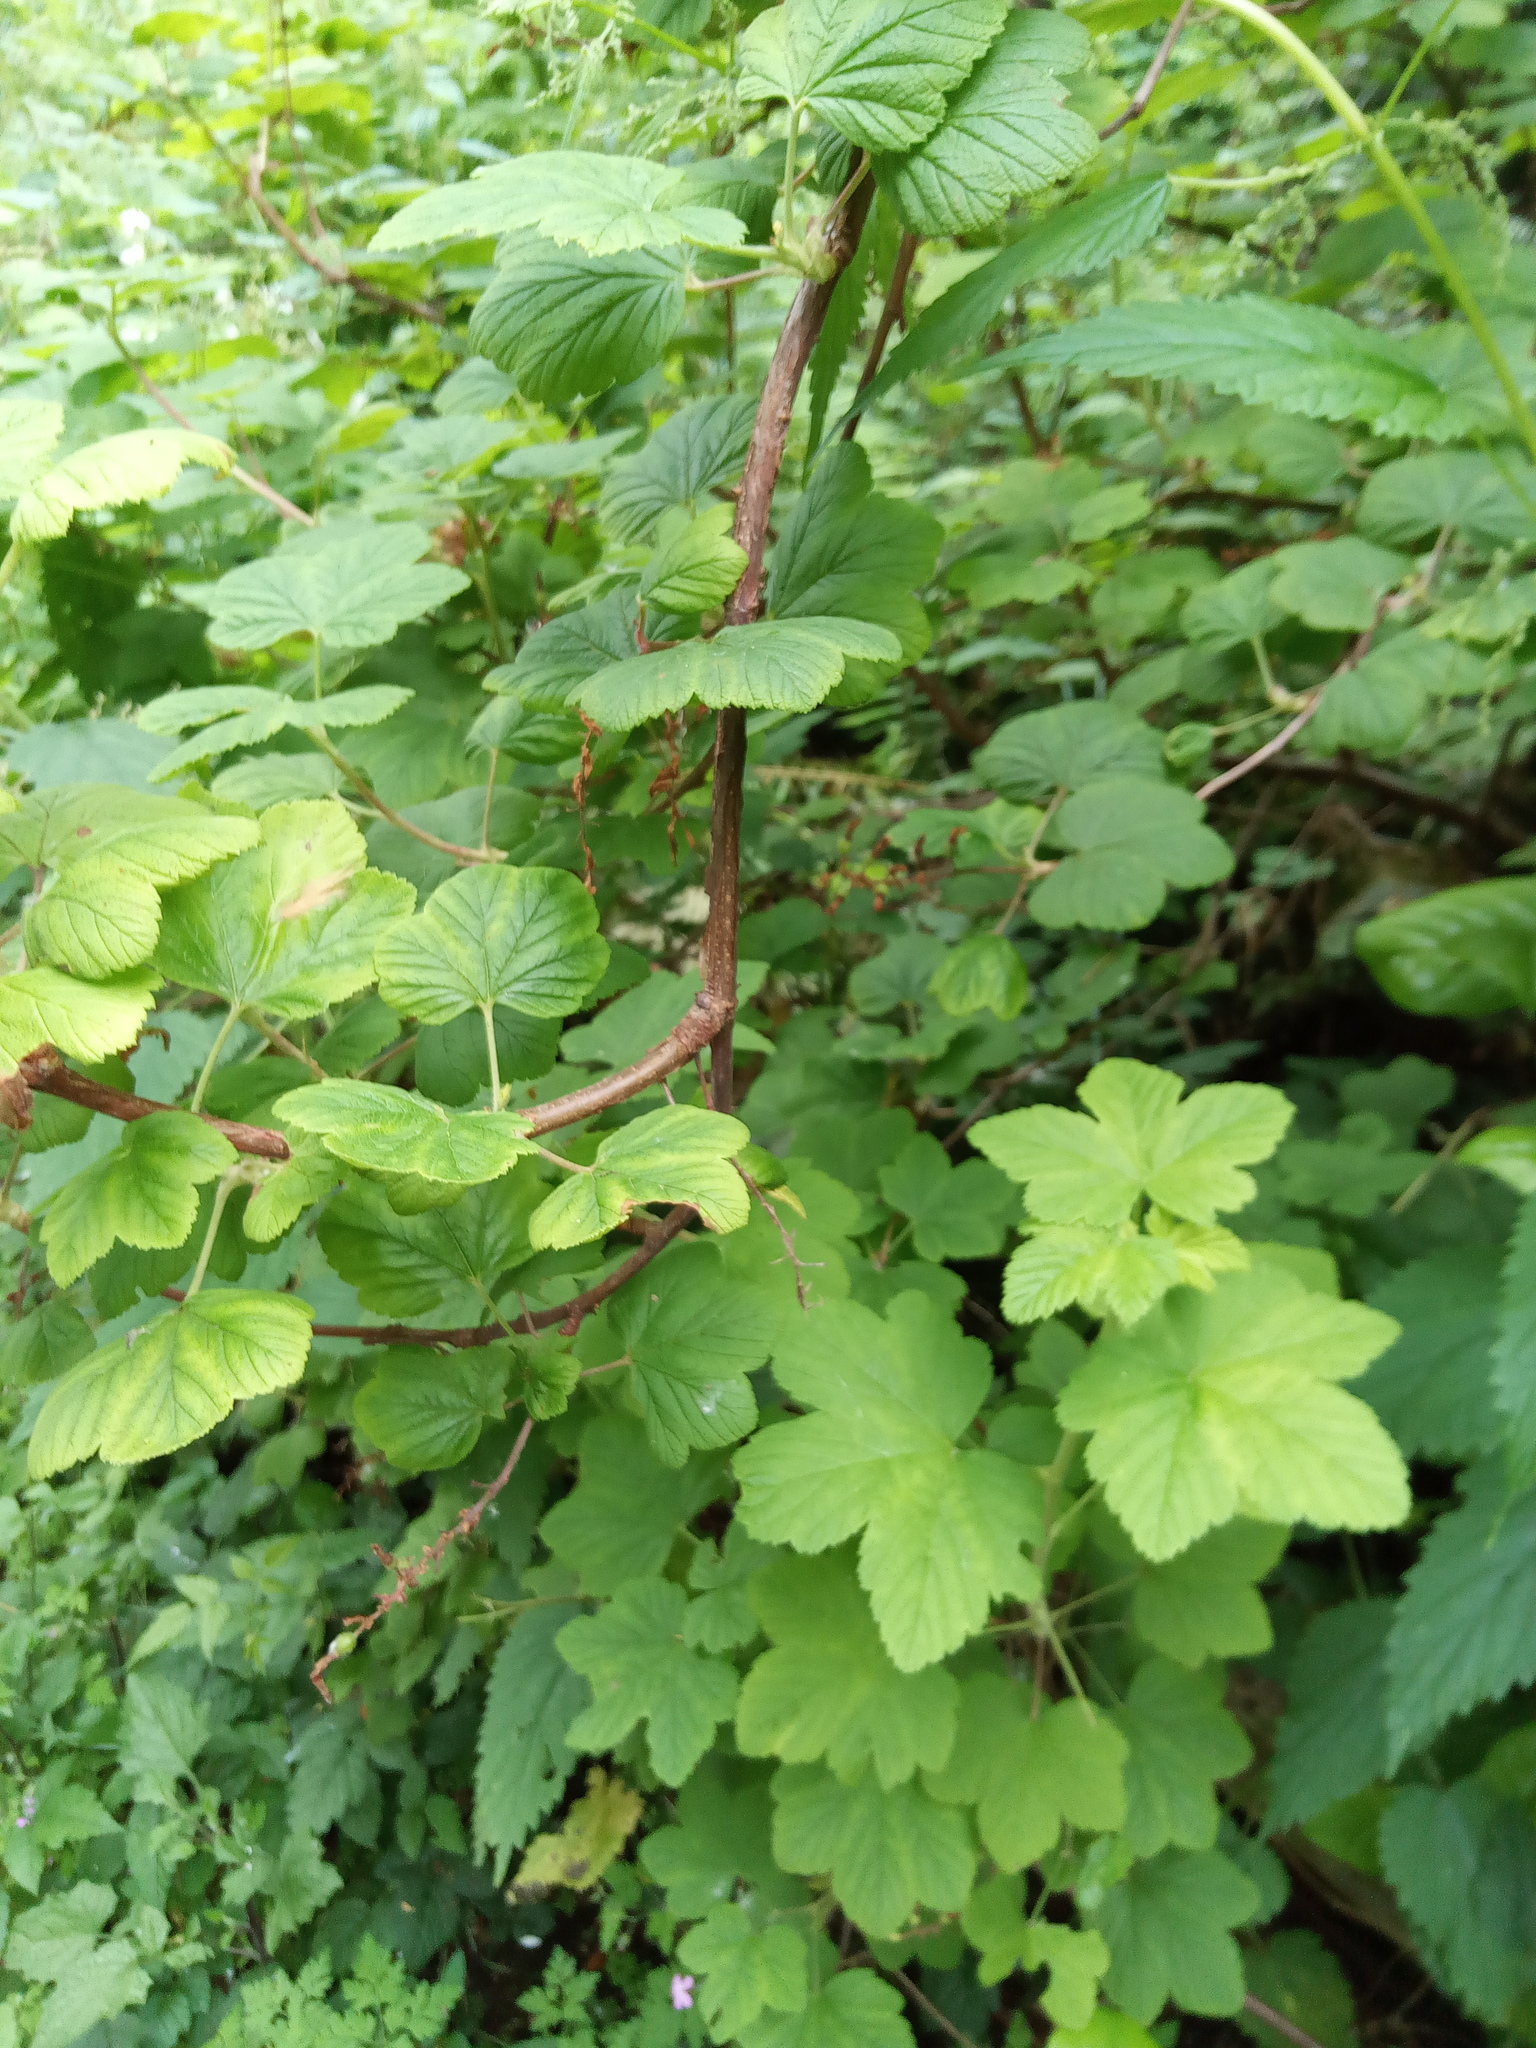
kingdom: Plantae
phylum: Tracheophyta
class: Magnoliopsida
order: Saxifragales
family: Grossulariaceae
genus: Ribes
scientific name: Ribes sanguineum
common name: Flowering currant
